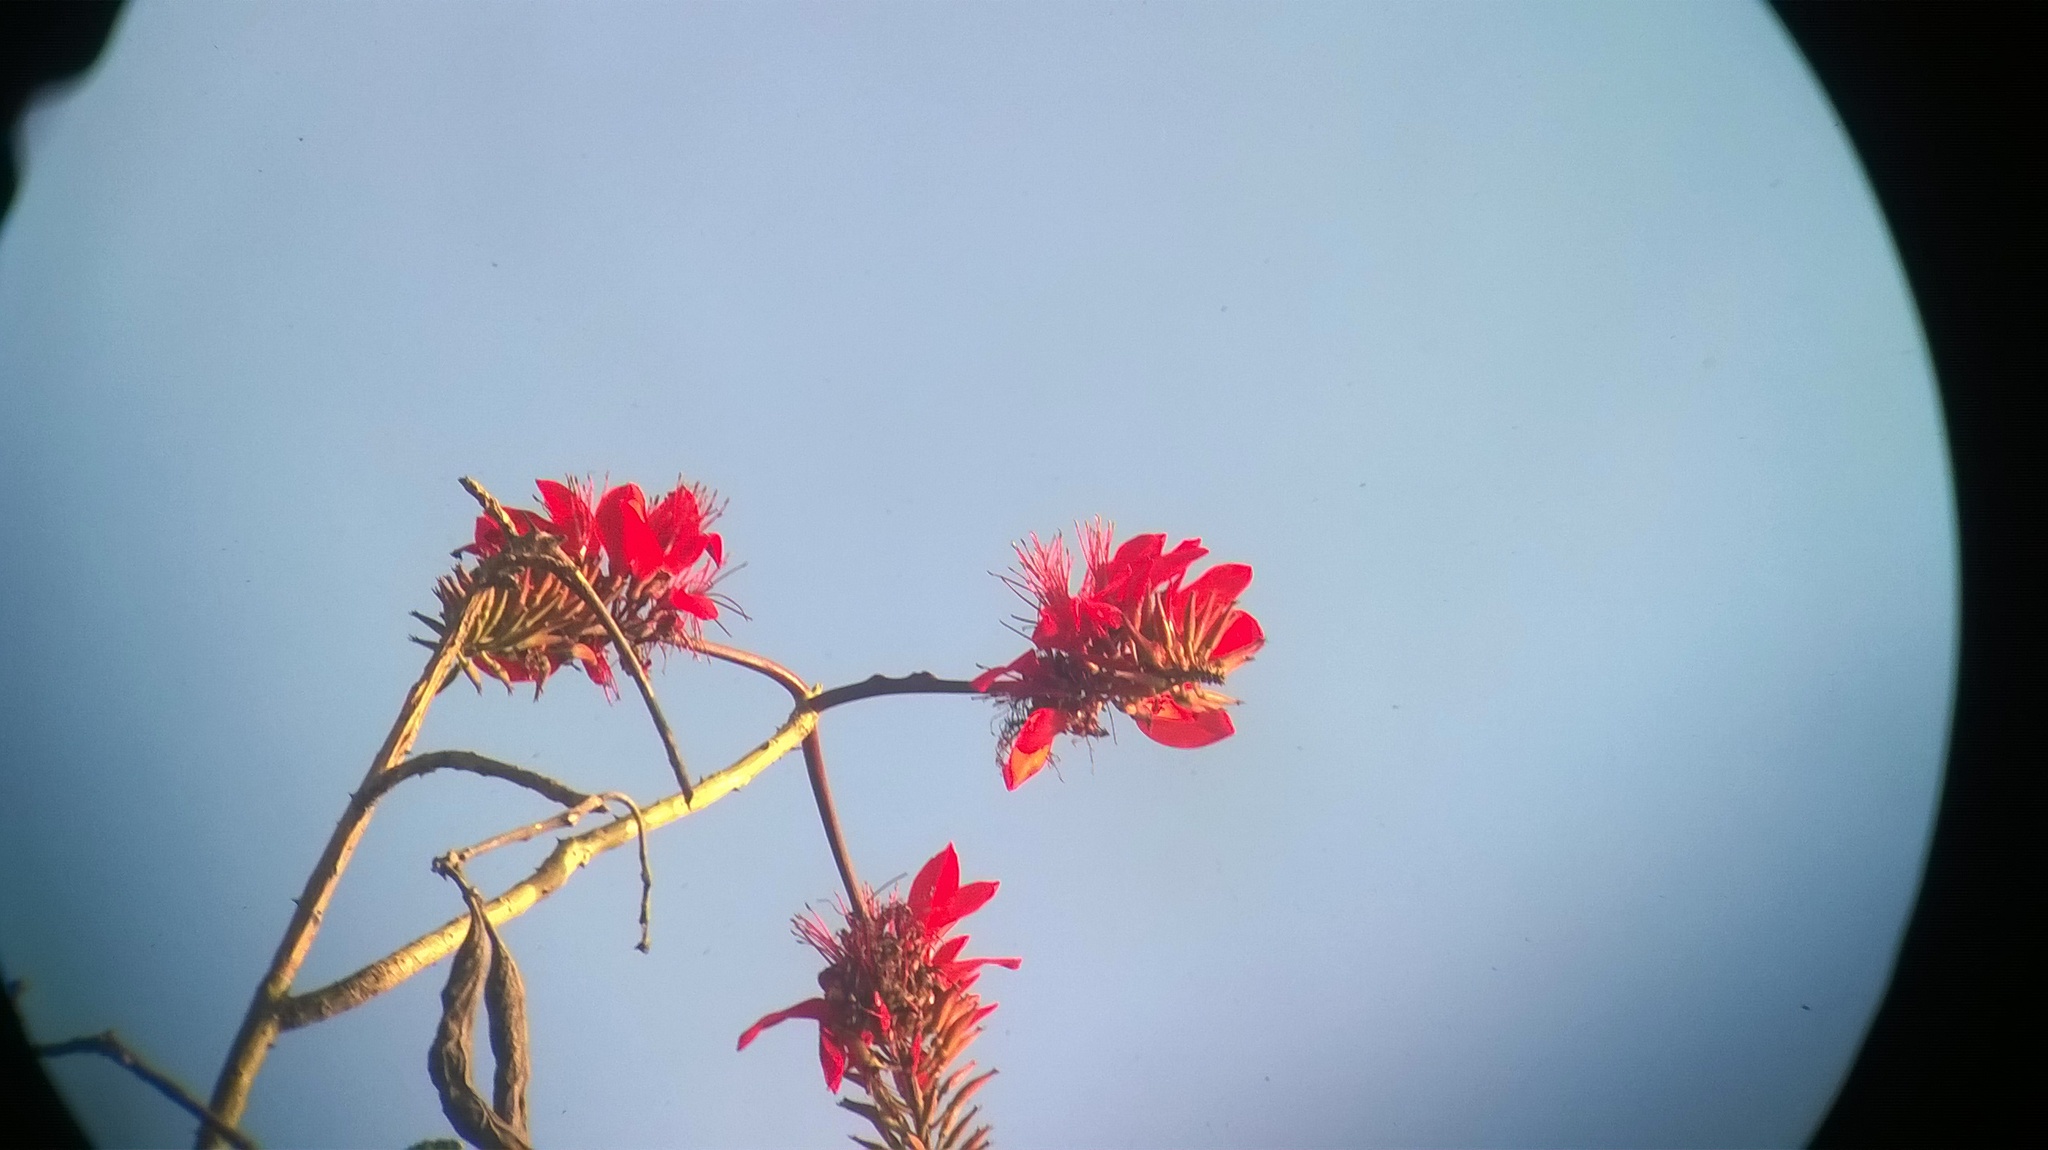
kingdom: Plantae
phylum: Tracheophyta
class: Magnoliopsida
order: Fabales
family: Fabaceae
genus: Erythrina
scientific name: Erythrina variegata
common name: Indian coral tree
